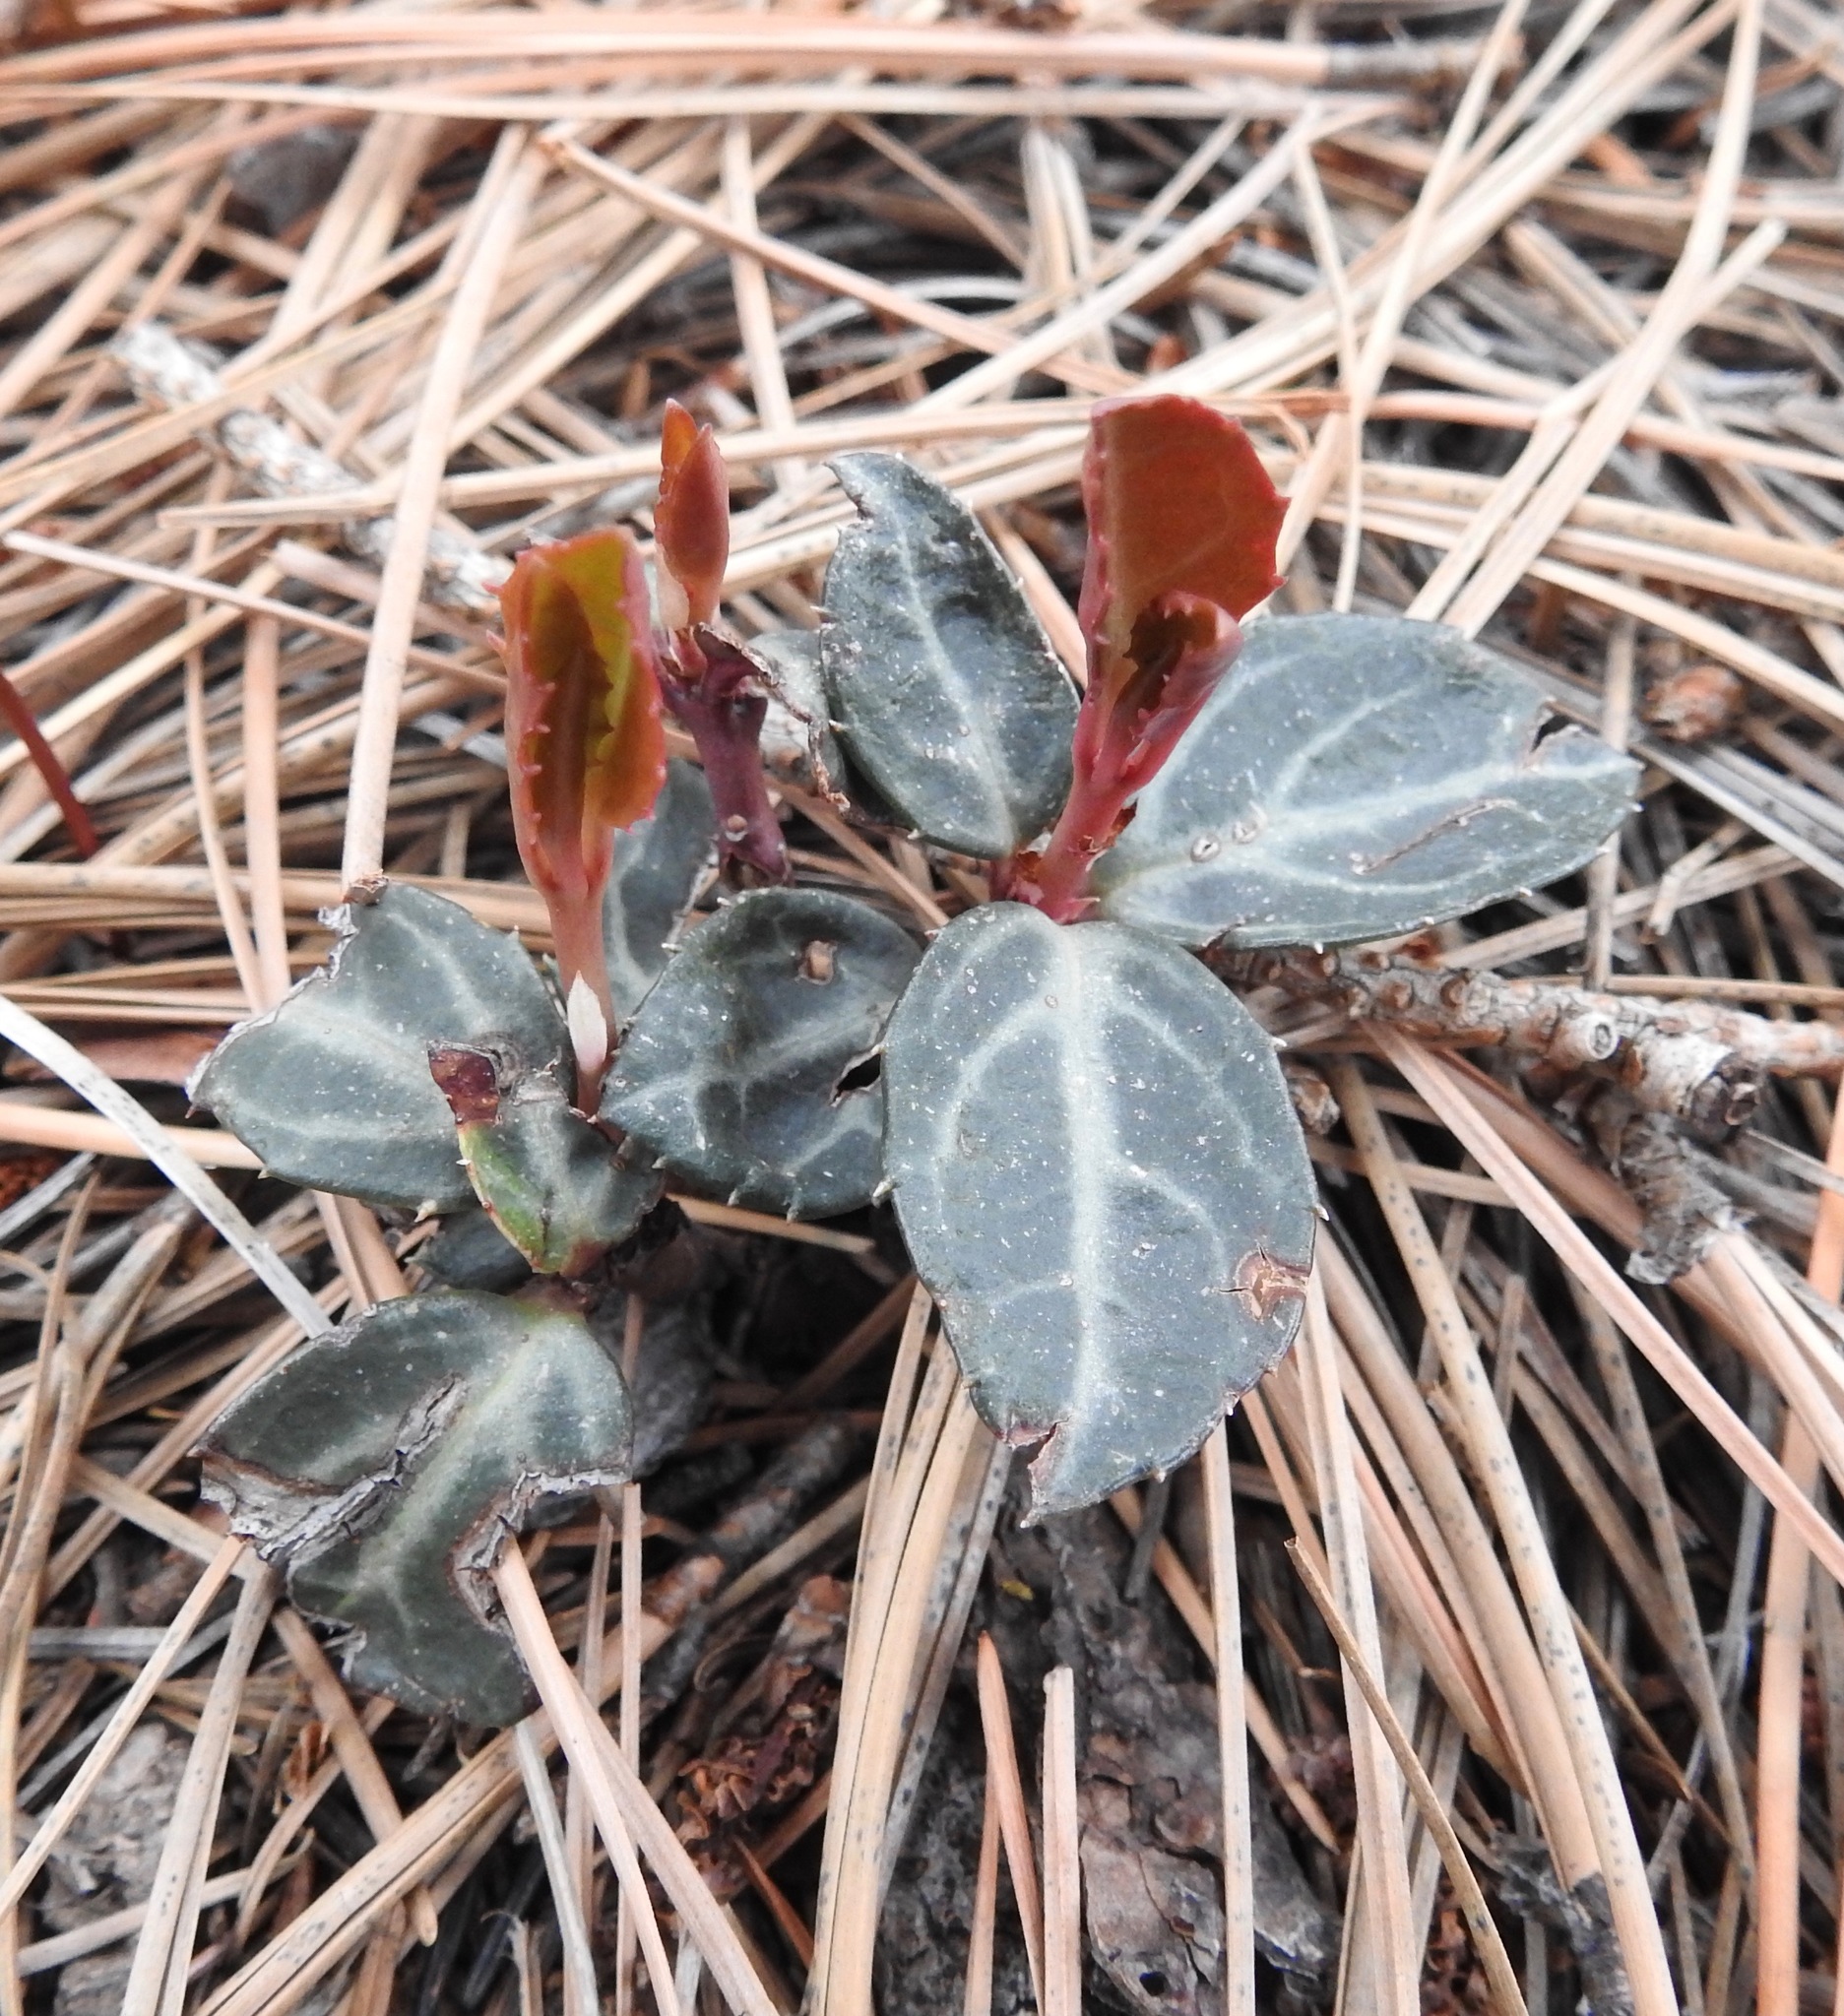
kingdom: Plantae
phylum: Tracheophyta
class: Magnoliopsida
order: Ericales
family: Ericaceae
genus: Chimaphila
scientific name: Chimaphila maculata
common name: Spotted pipsissewa
